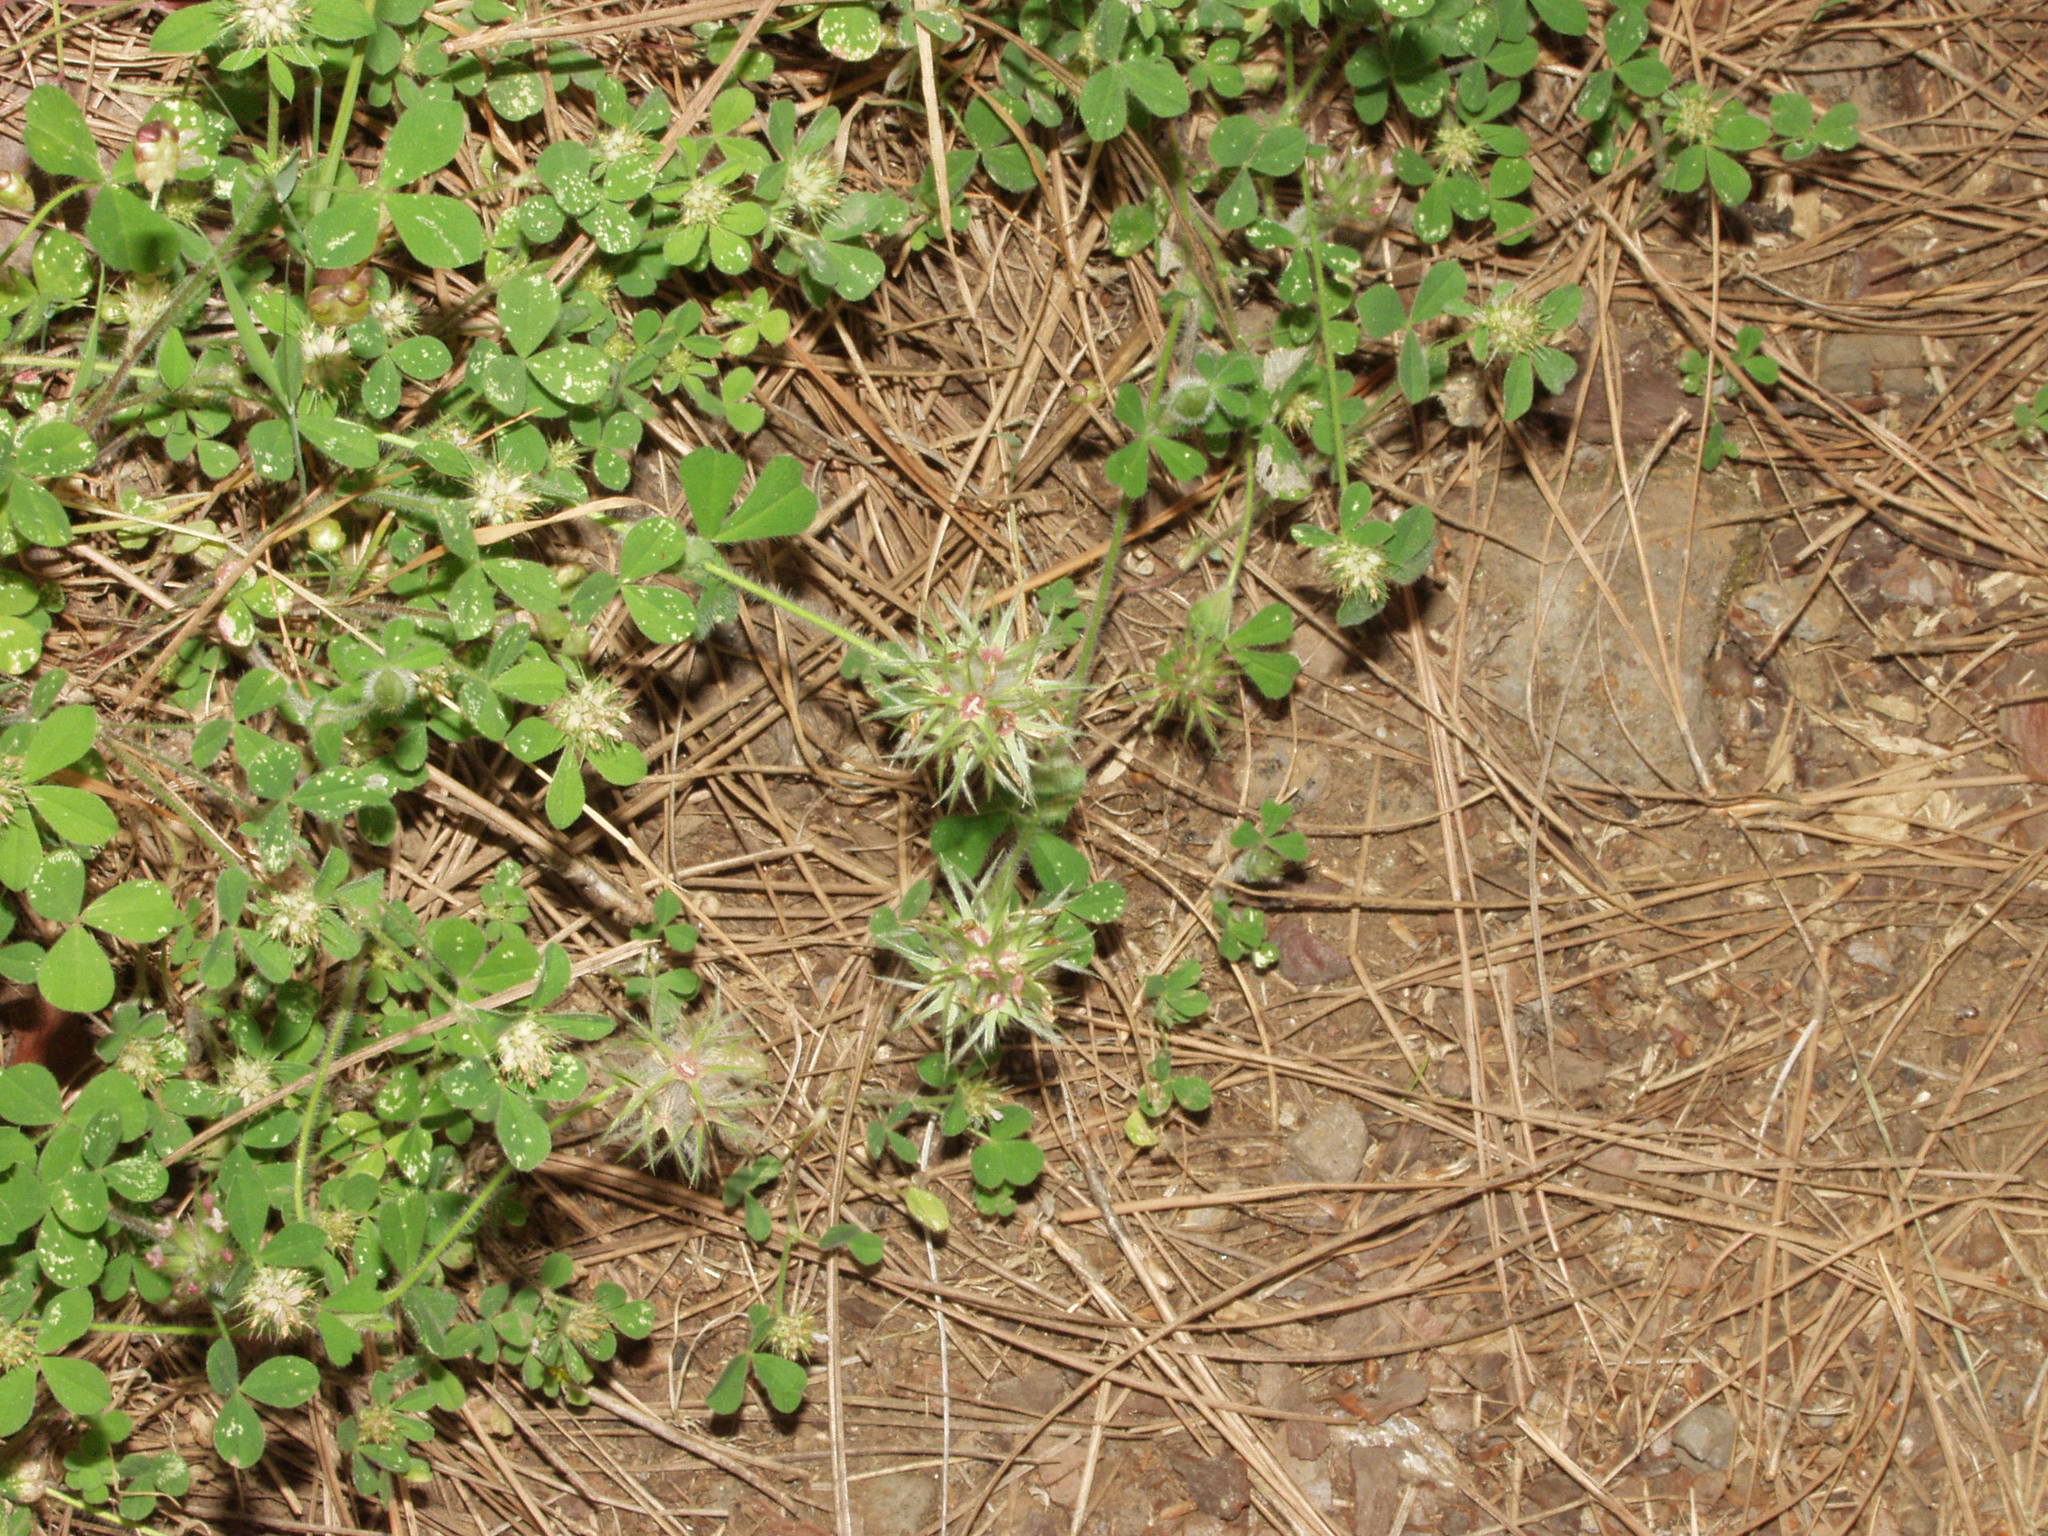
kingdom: Plantae
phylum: Tracheophyta
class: Magnoliopsida
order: Fabales
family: Fabaceae
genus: Trifolium
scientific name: Trifolium stellatum
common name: Starry clover
